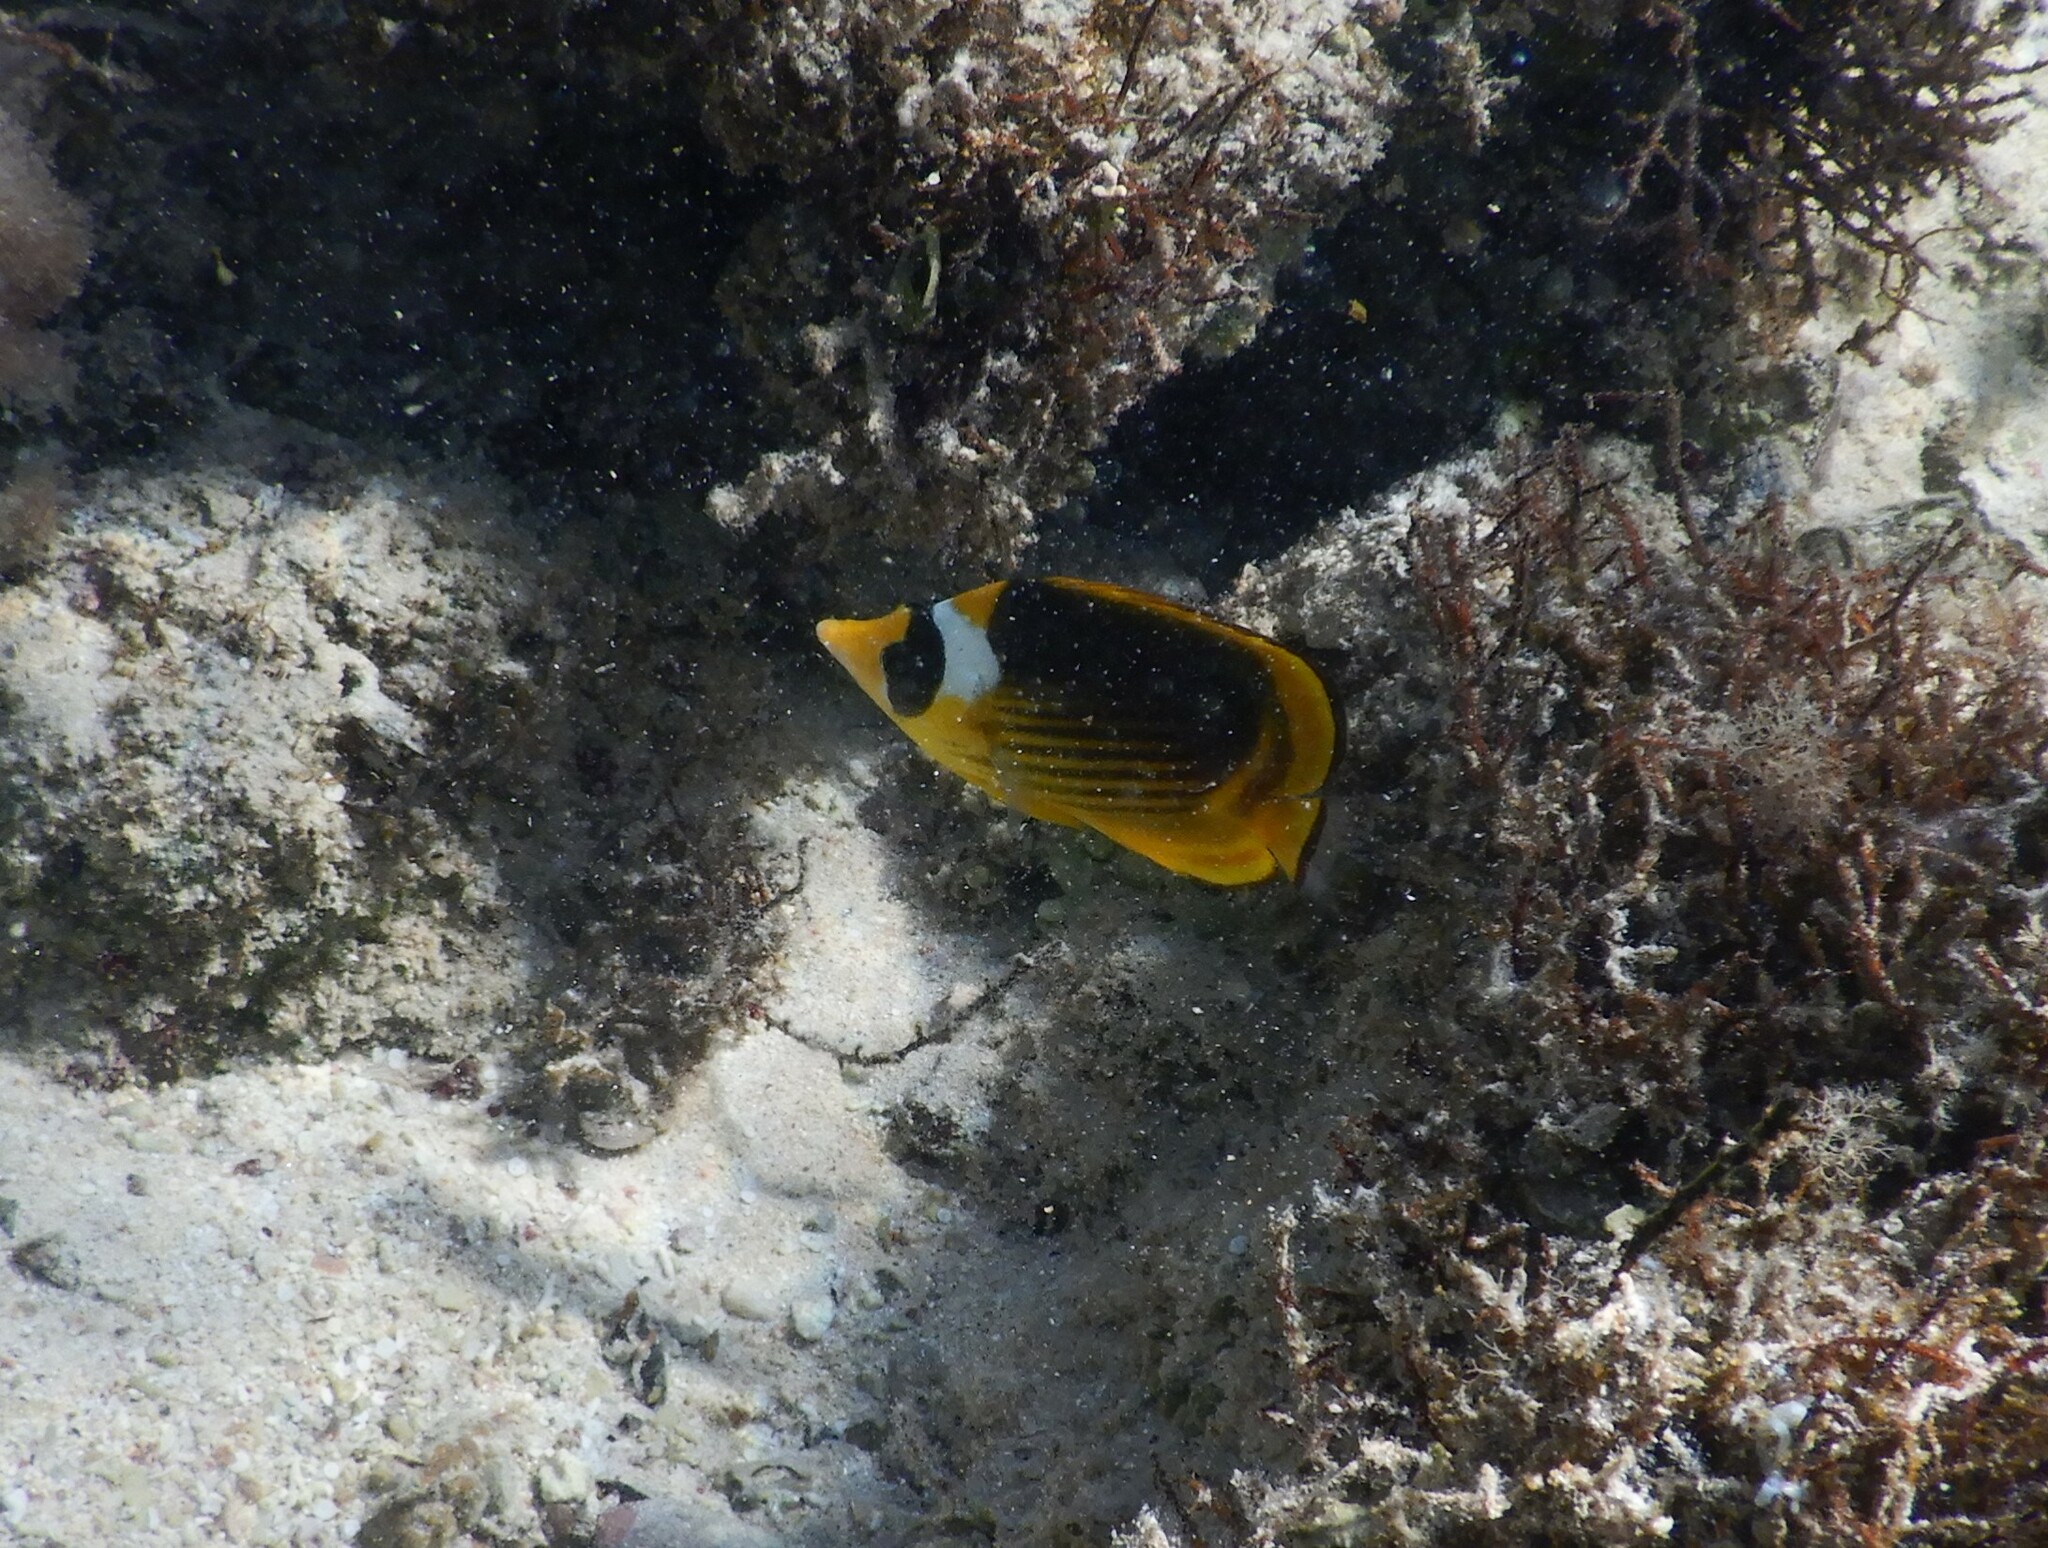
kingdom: Animalia
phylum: Chordata
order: Perciformes
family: Chaetodontidae
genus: Chaetodon
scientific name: Chaetodon fasciatus
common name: Diagonal butterflyfish
